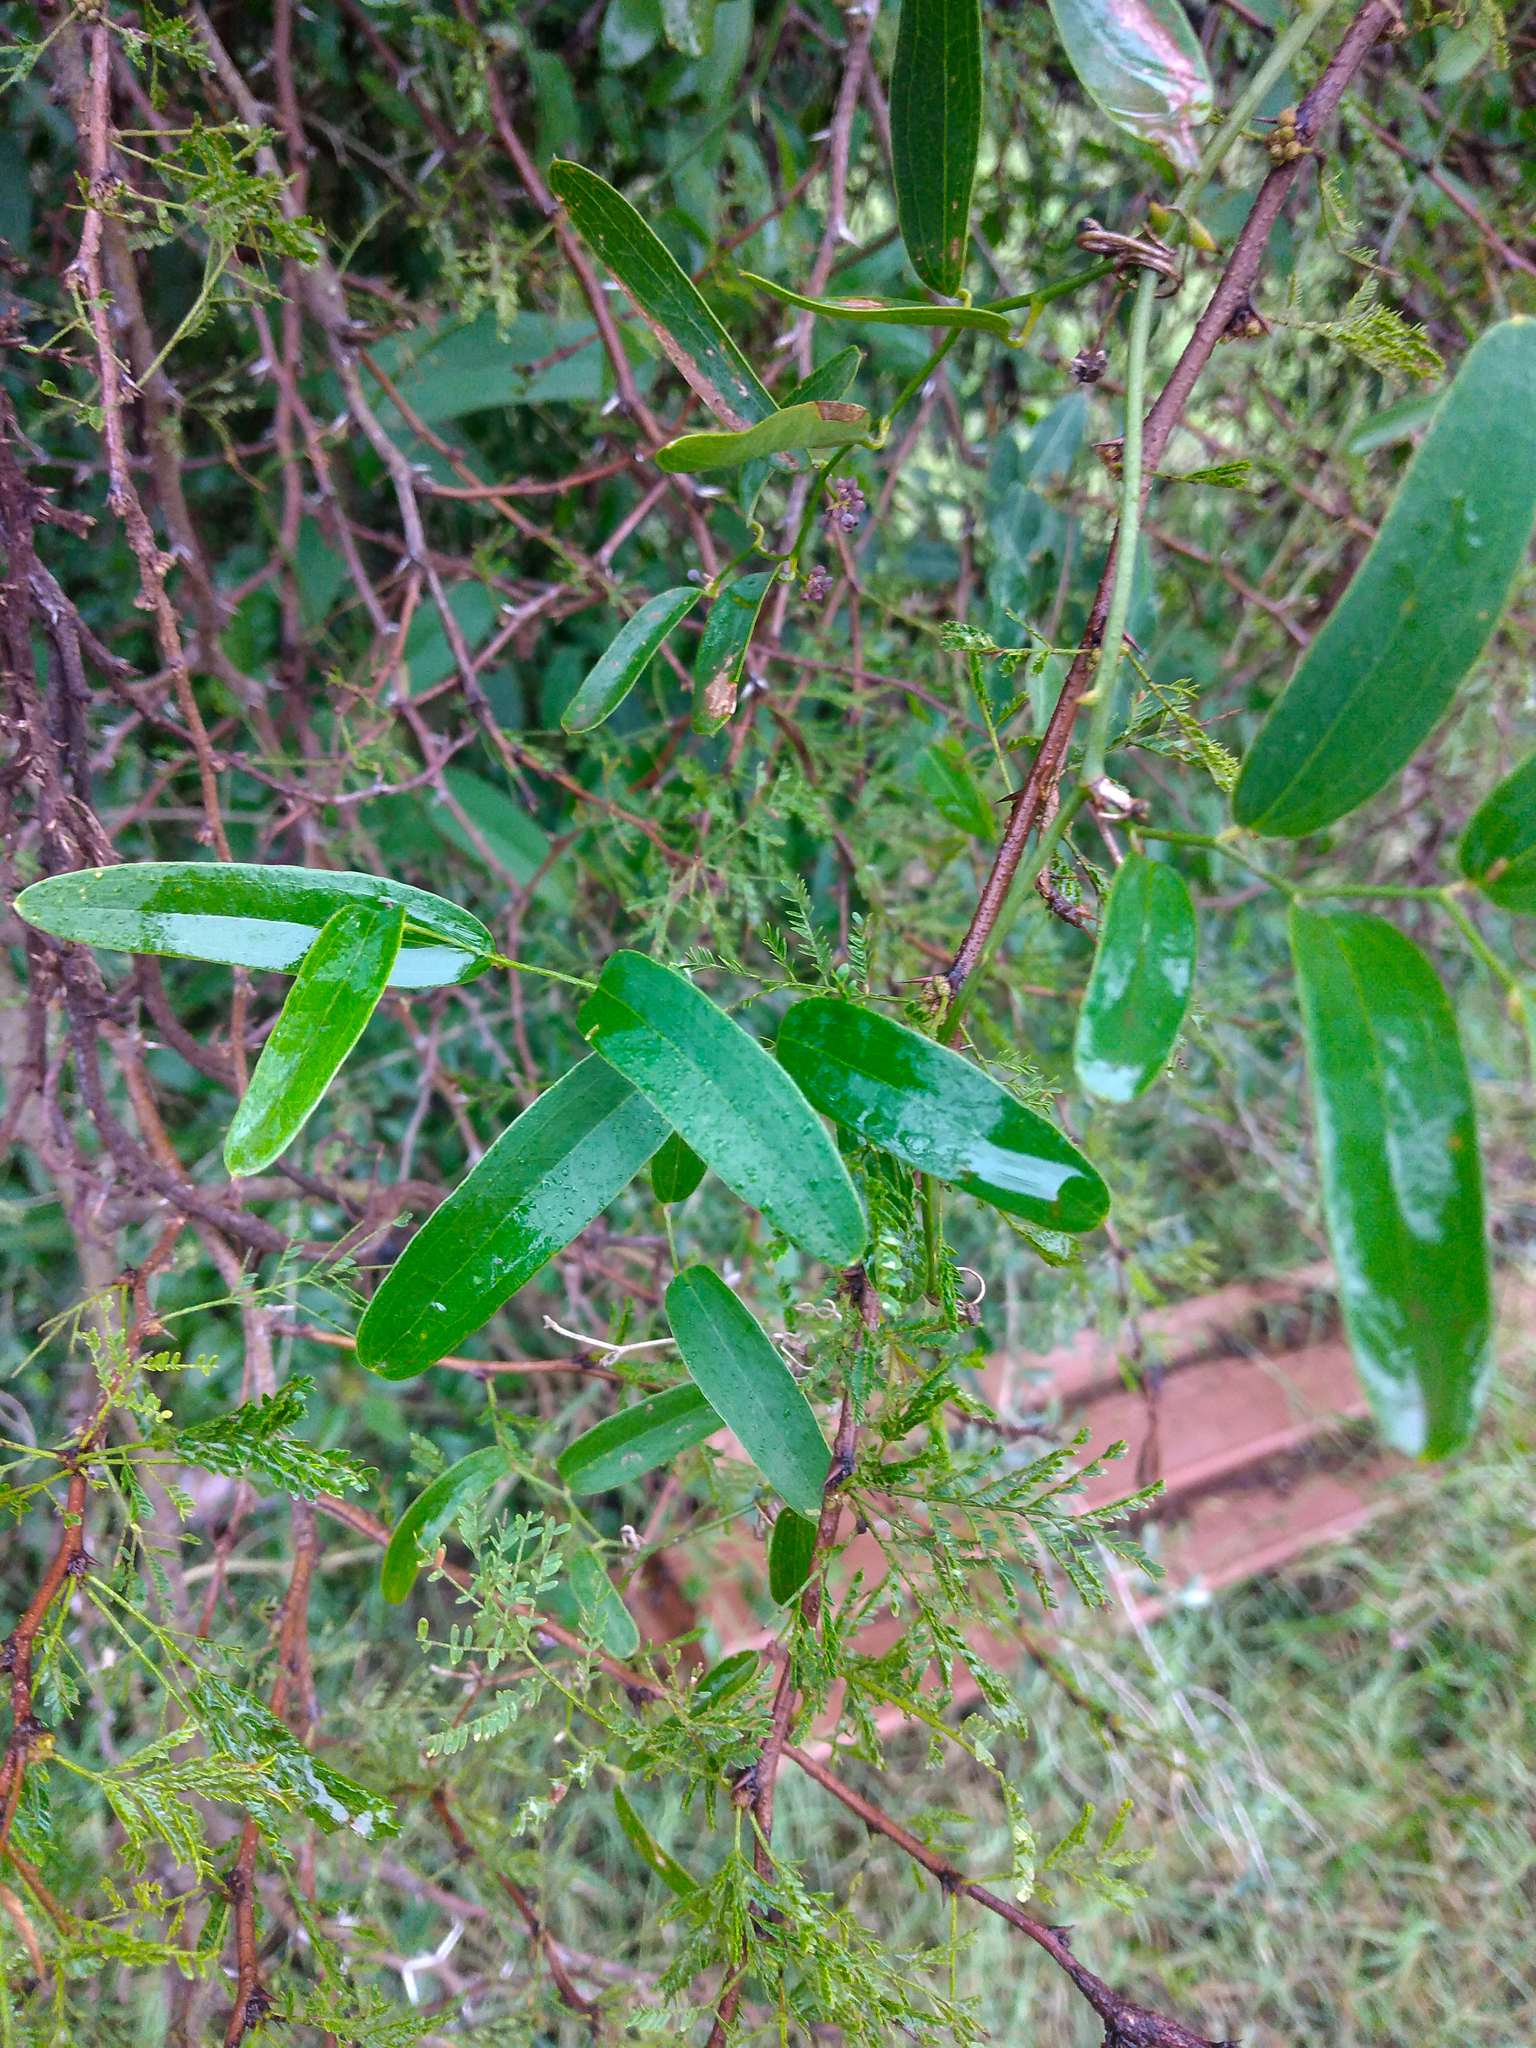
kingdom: Plantae
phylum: Tracheophyta
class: Liliopsida
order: Liliales
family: Smilacaceae
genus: Smilax
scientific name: Smilax campestris
